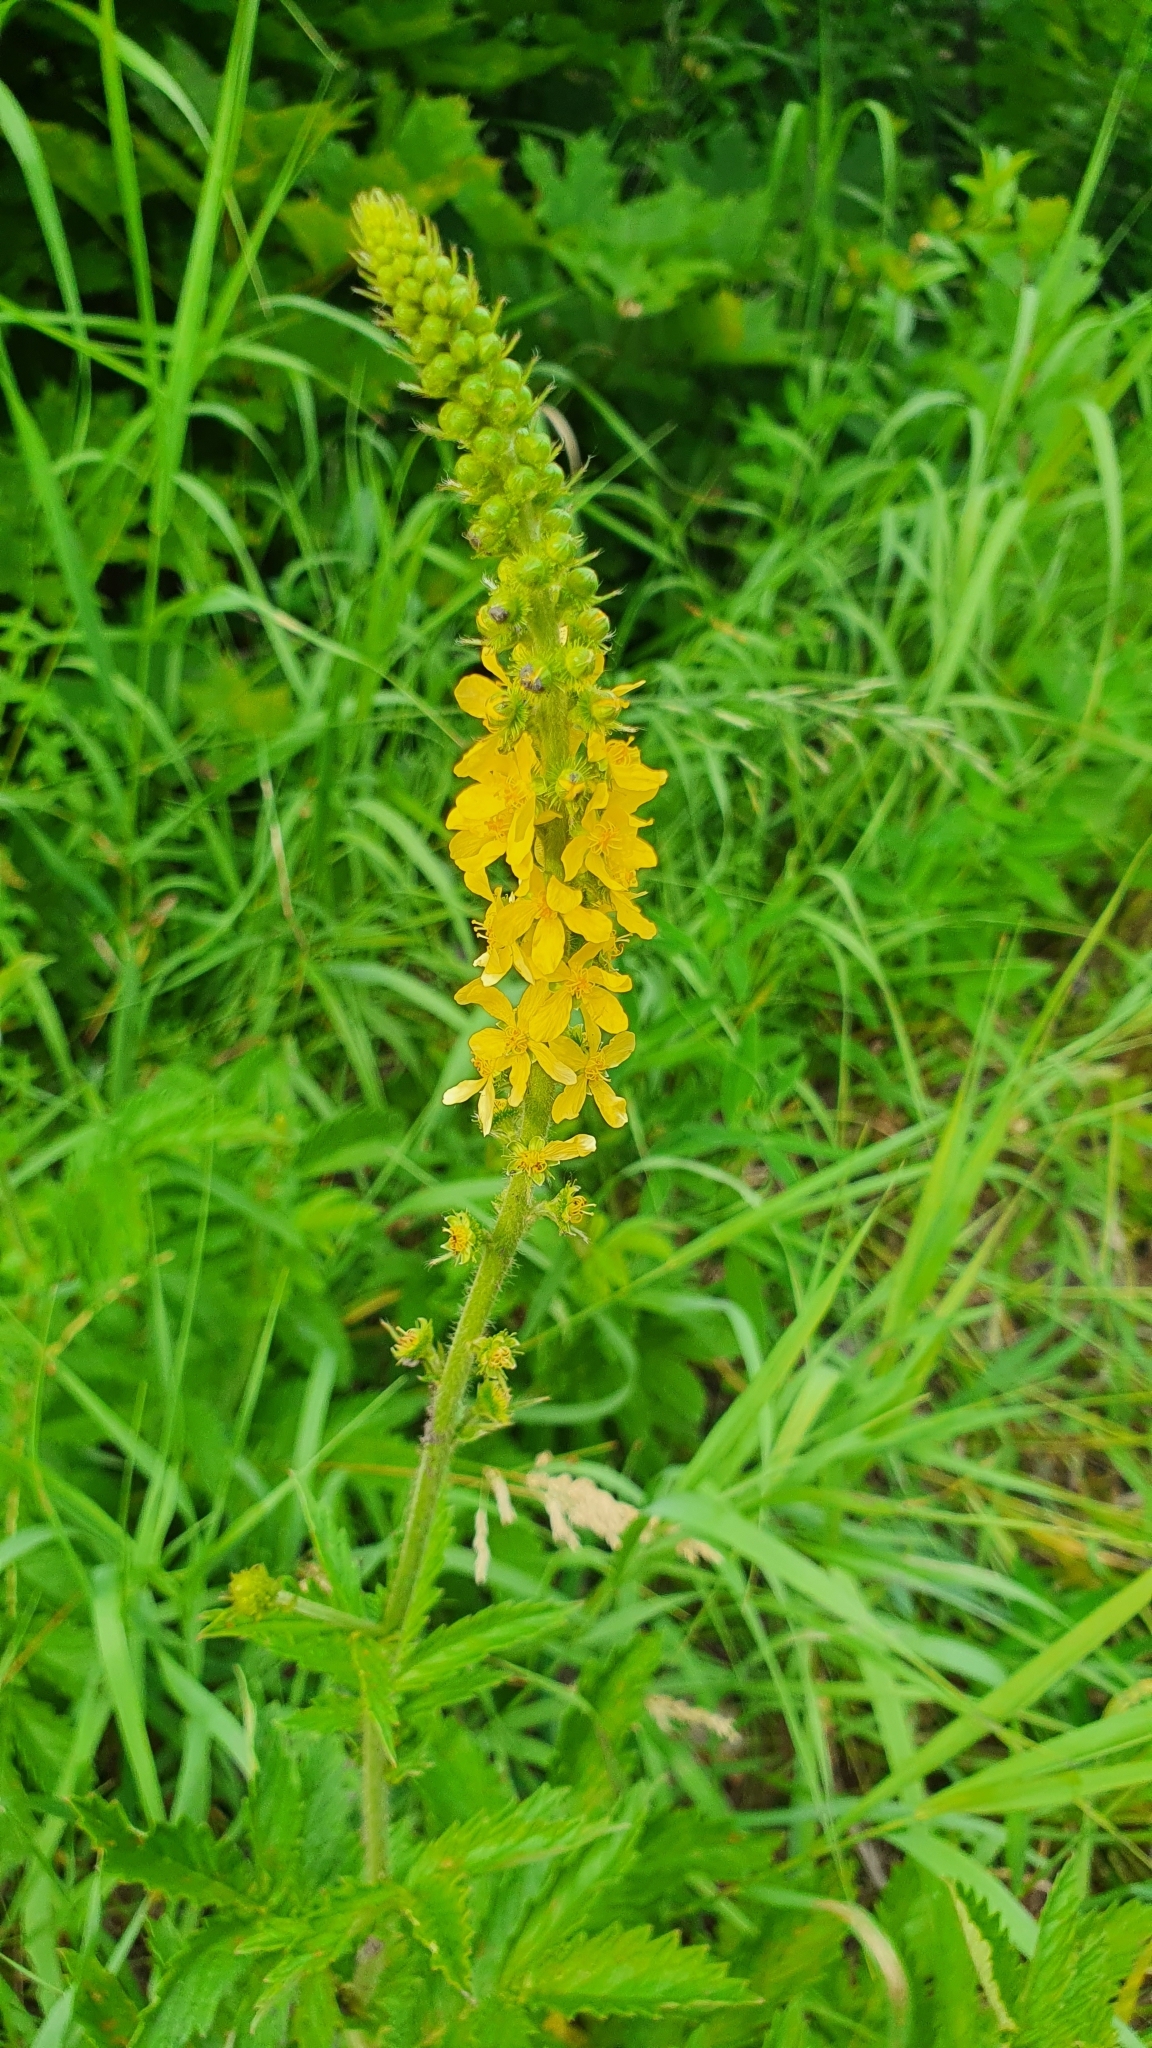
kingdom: Plantae
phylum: Tracheophyta
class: Magnoliopsida
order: Rosales
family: Rosaceae
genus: Agrimonia
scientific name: Agrimonia eupatoria
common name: Agrimony
